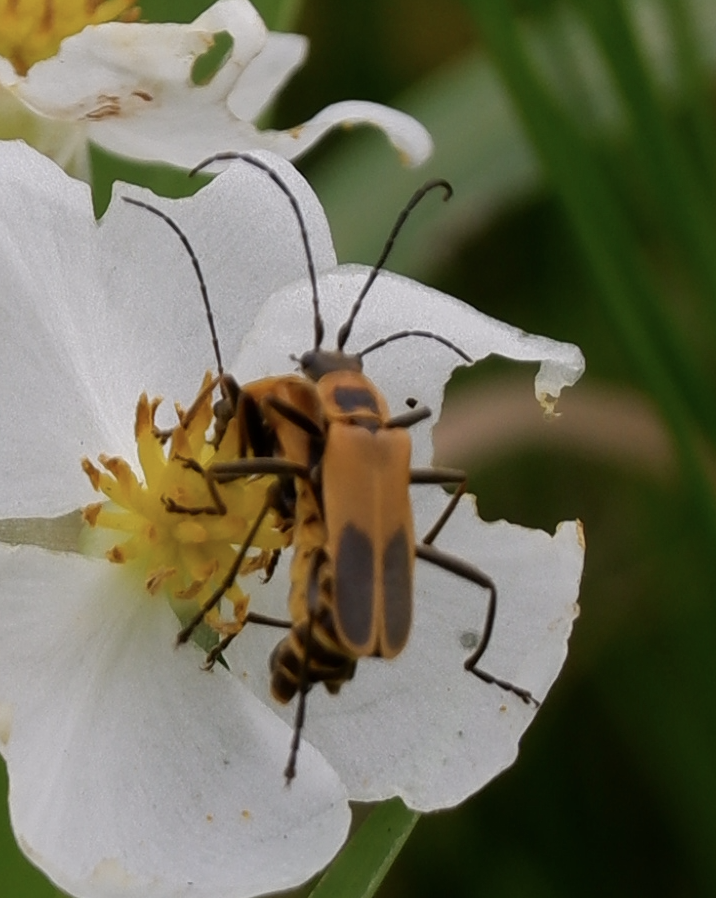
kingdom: Animalia
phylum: Arthropoda
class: Insecta
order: Coleoptera
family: Cantharidae
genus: Chauliognathus
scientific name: Chauliognathus pensylvanicus
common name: Goldenrod soldier beetle
